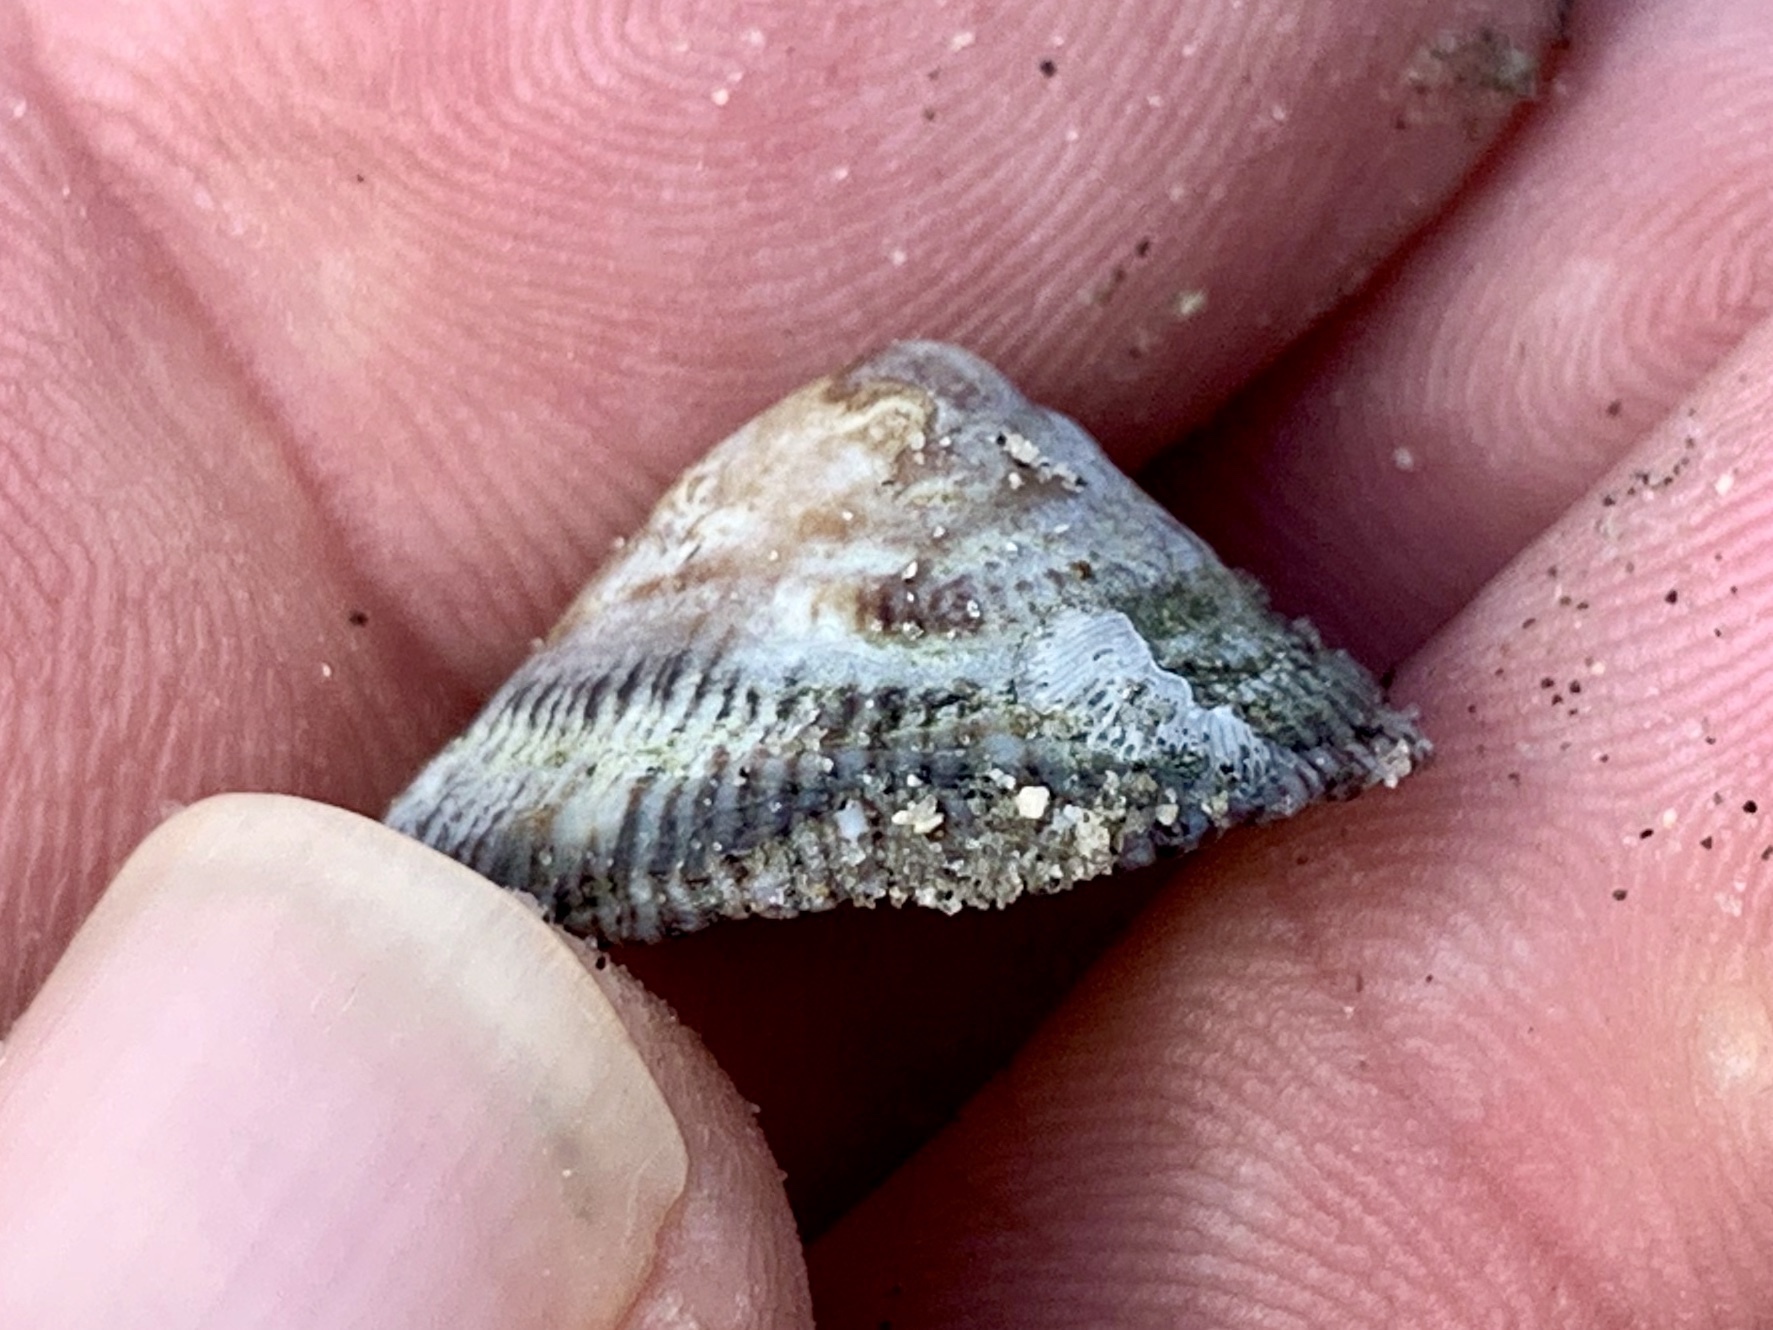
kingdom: Animalia
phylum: Mollusca
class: Gastropoda
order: Siphonariida
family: Siphonariidae
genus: Siphonaria
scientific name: Siphonaria naufragum
